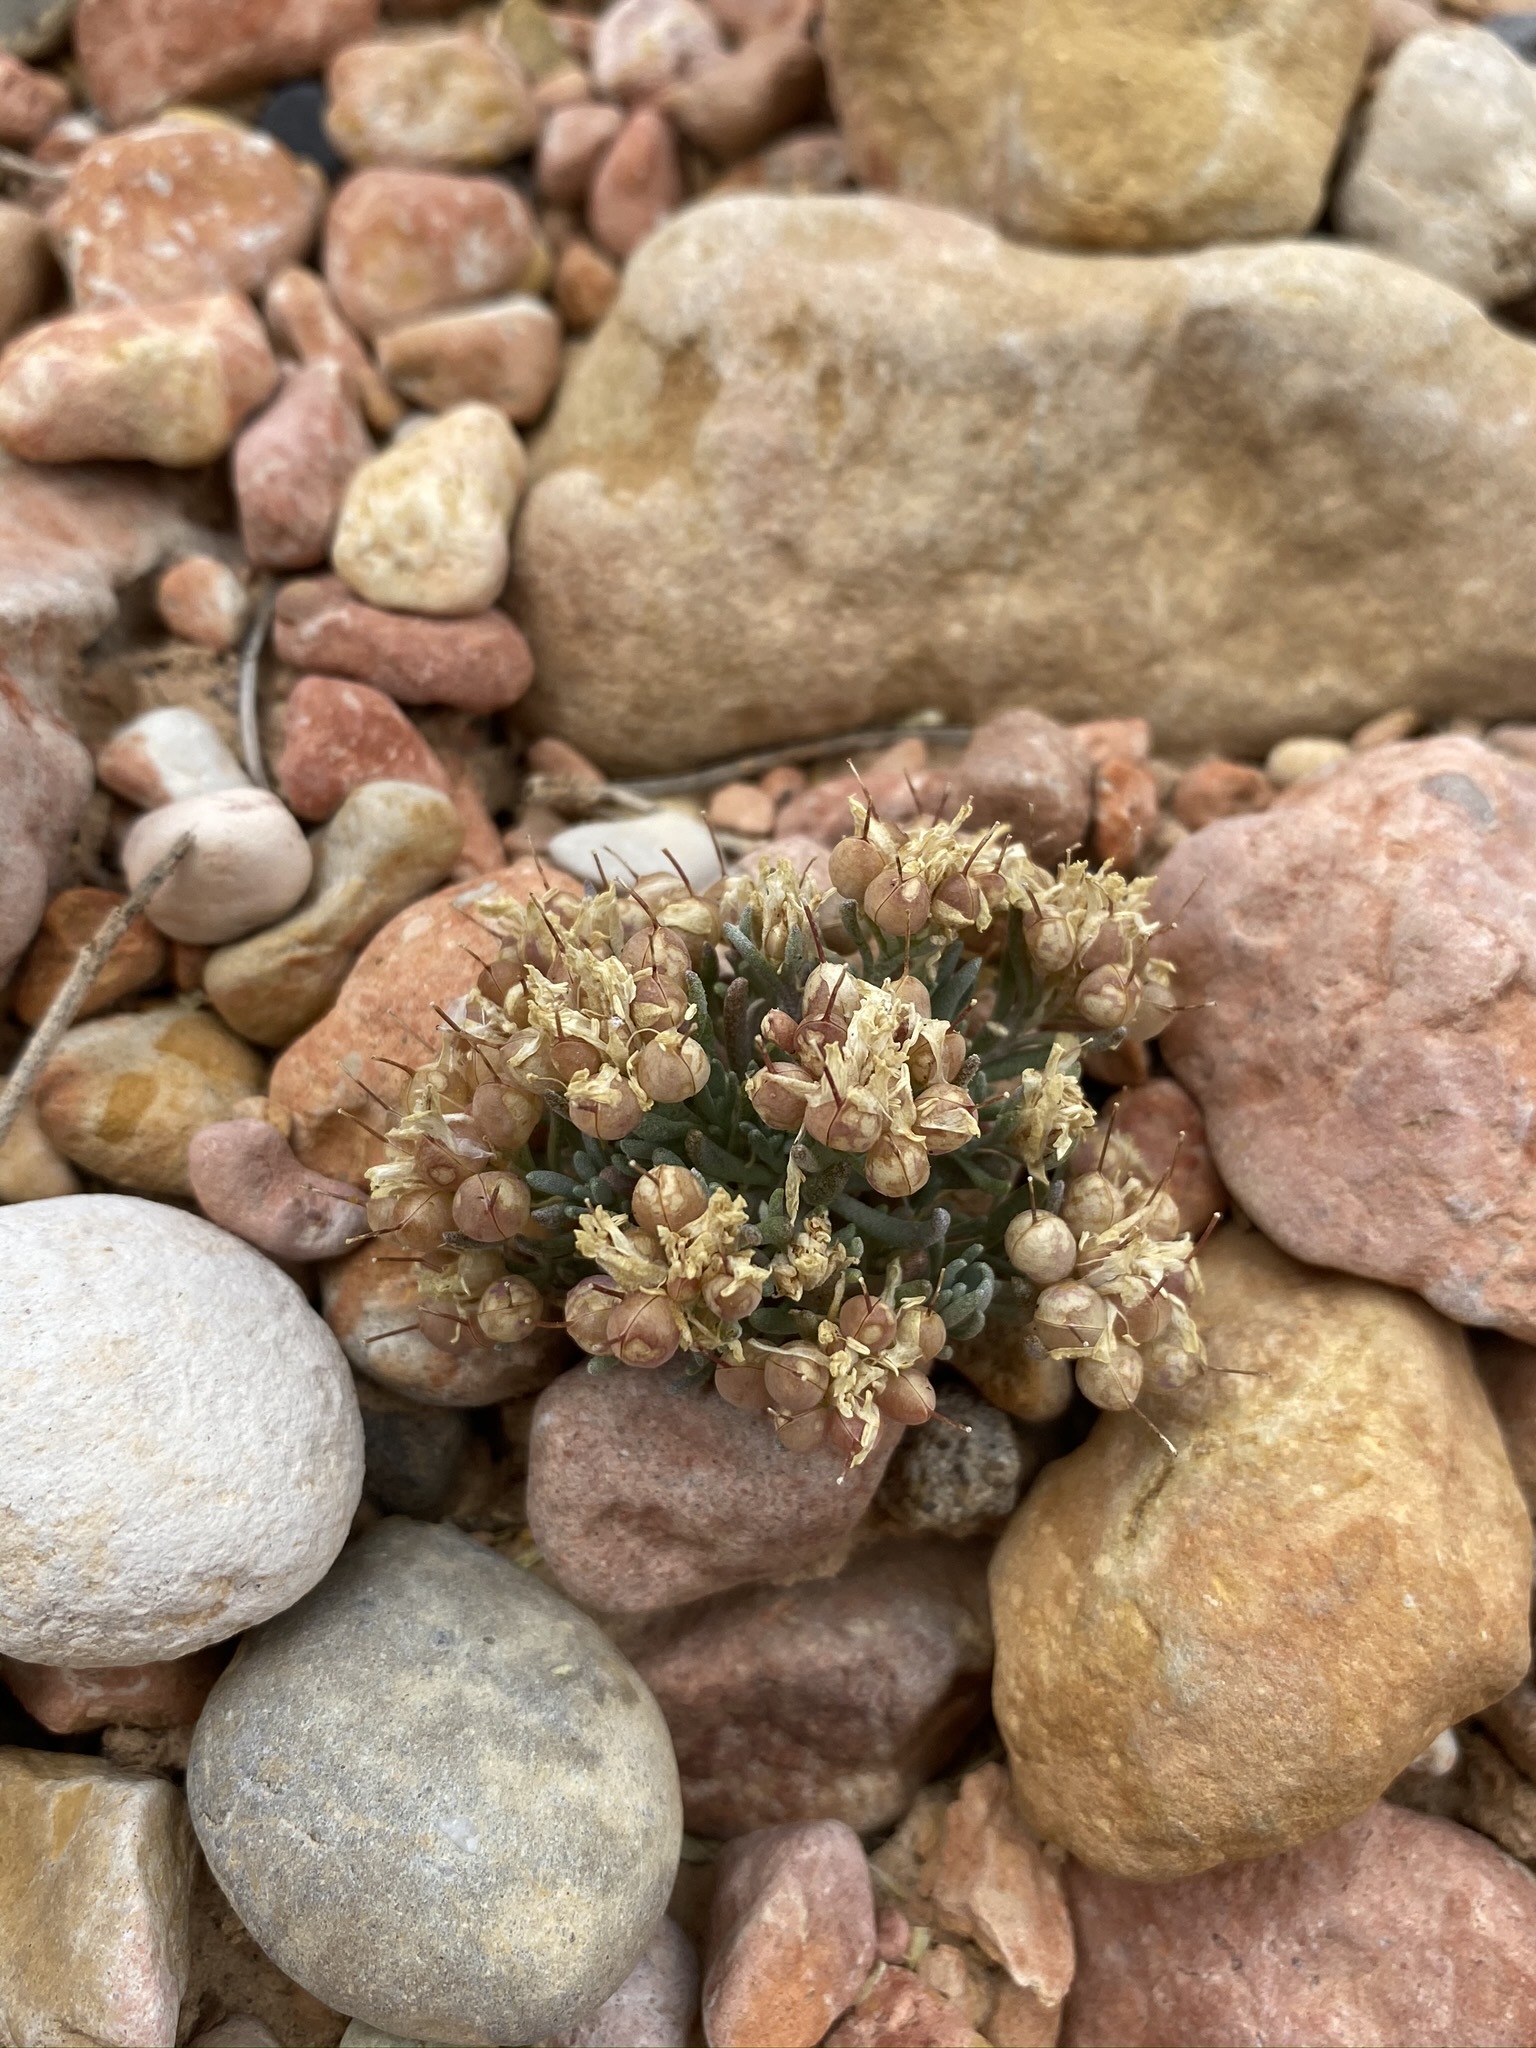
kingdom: Plantae
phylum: Tracheophyta
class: Magnoliopsida
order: Brassicales
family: Brassicaceae
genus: Physaria
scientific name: Physaria hitchcockii
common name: Hitchcock's bladderpod
